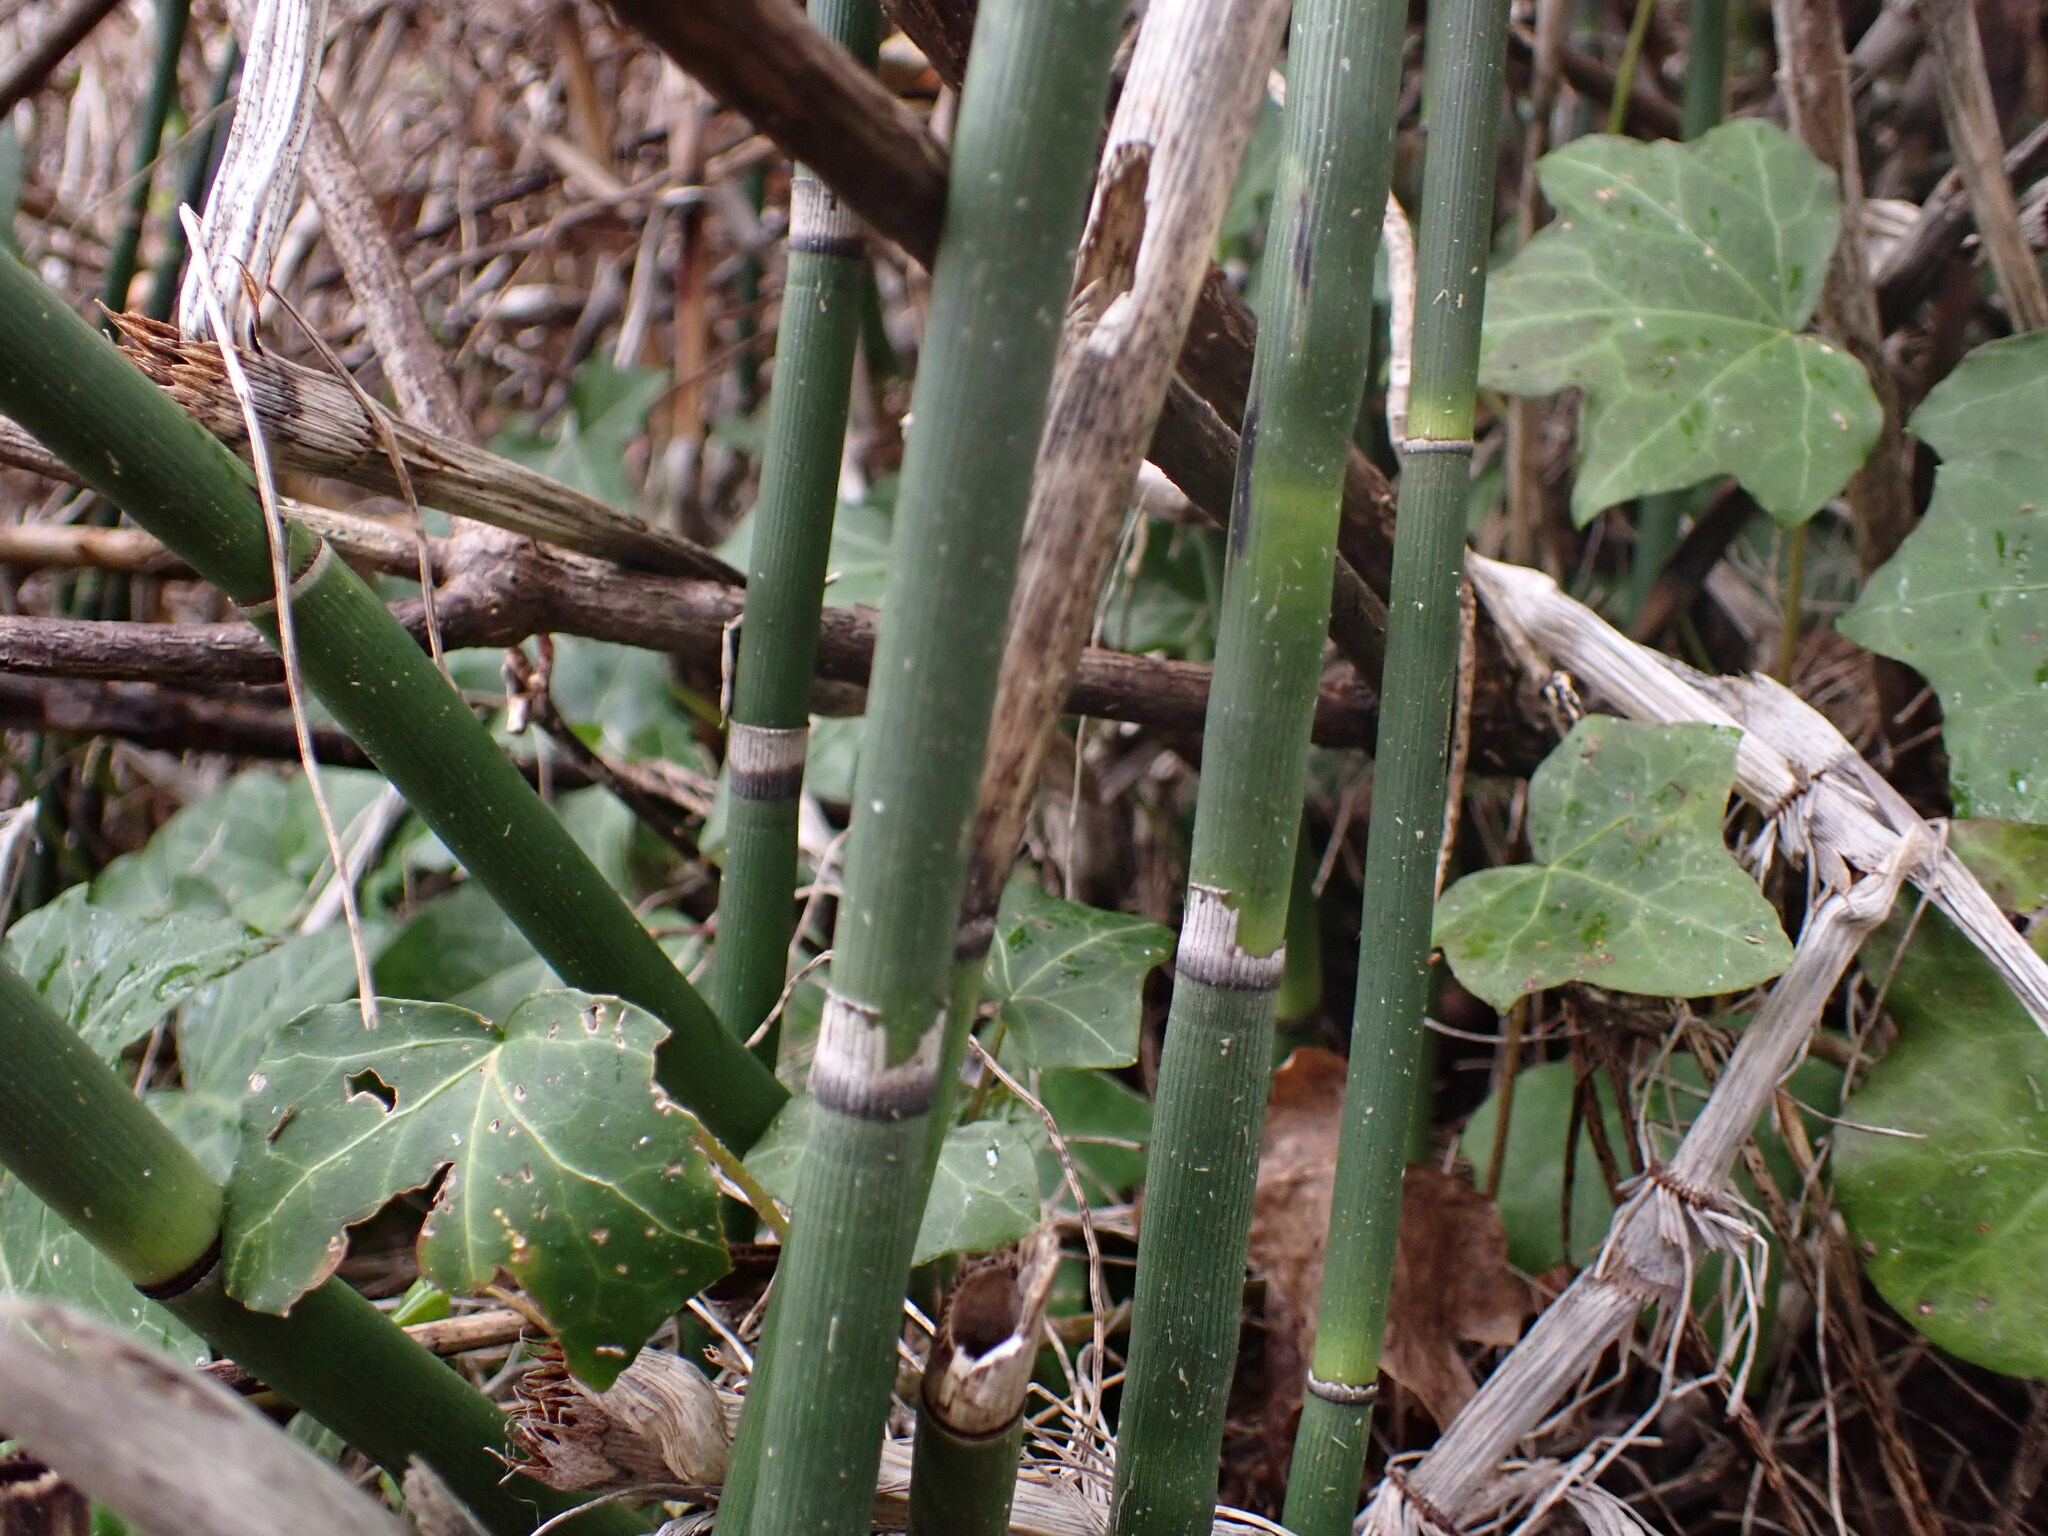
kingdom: Plantae
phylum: Tracheophyta
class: Polypodiopsida
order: Equisetales
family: Equisetaceae
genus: Equisetum
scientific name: Equisetum praealtum
